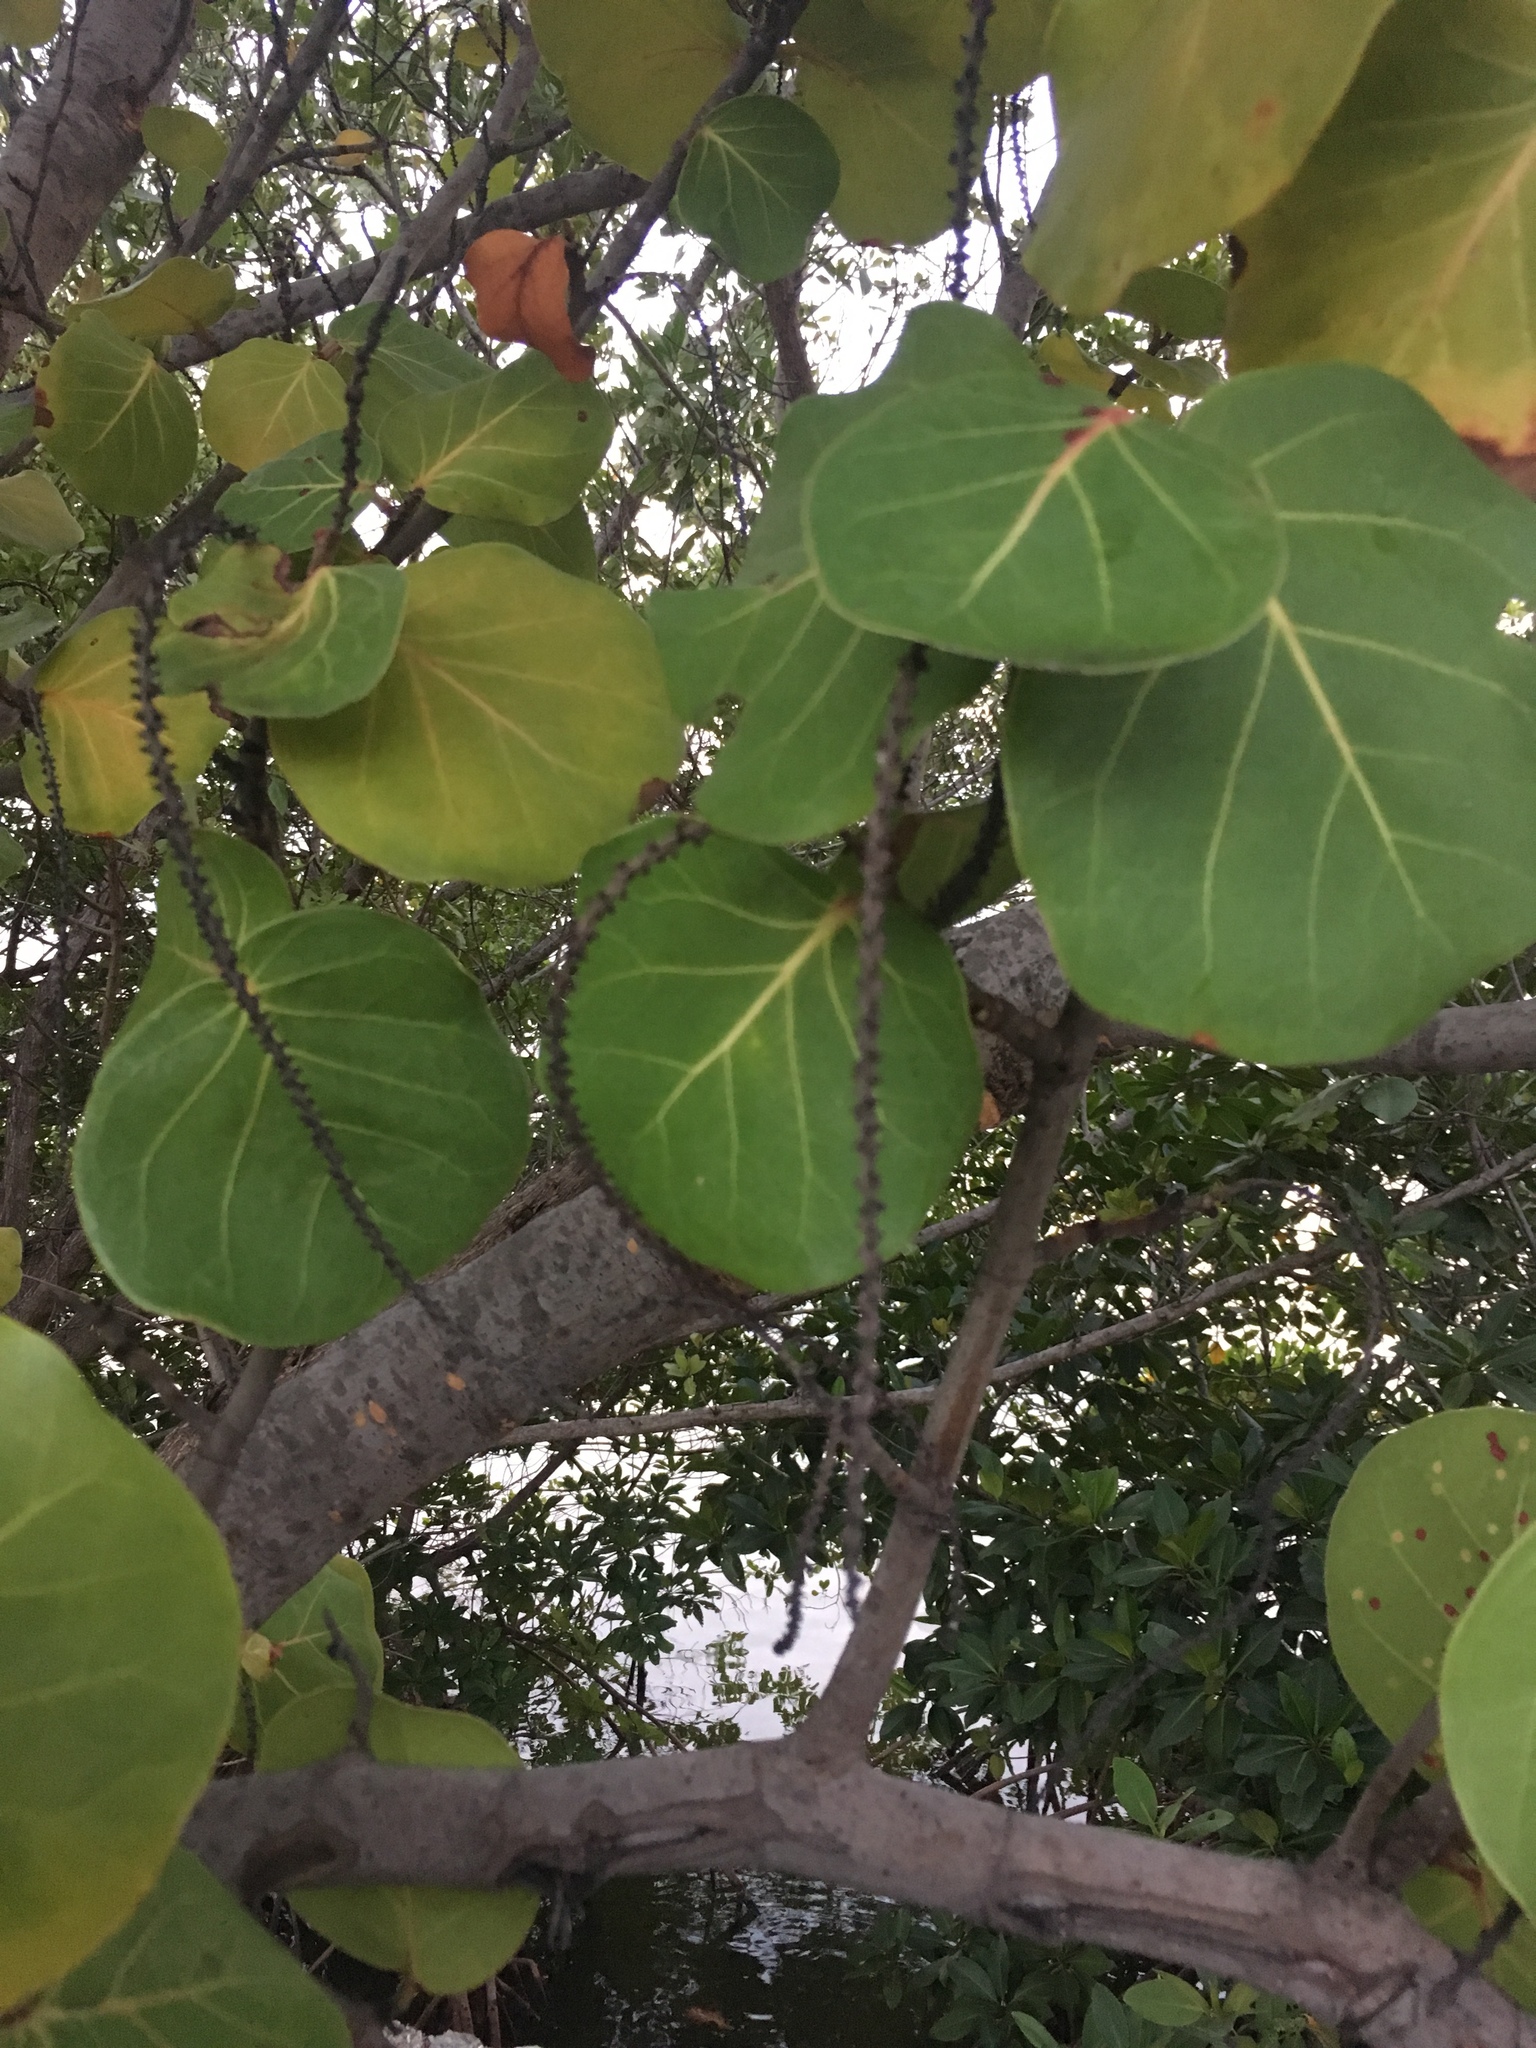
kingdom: Plantae
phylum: Tracheophyta
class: Magnoliopsida
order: Caryophyllales
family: Polygonaceae
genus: Coccoloba
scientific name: Coccoloba uvifera
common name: Seagrape
